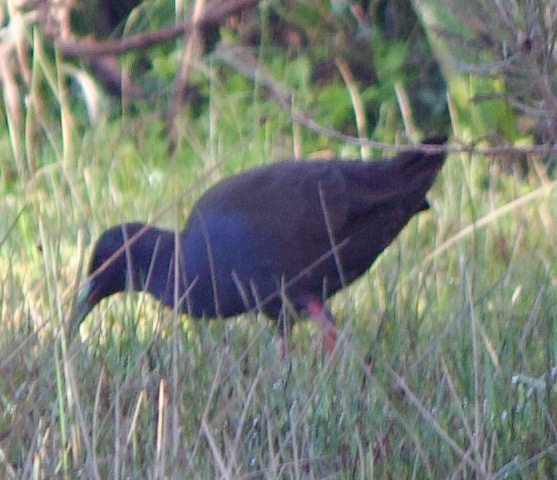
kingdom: Animalia
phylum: Chordata
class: Aves
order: Gruiformes
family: Rallidae
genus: Pardirallus
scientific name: Pardirallus sanguinolentus
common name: Plumbeous rail
